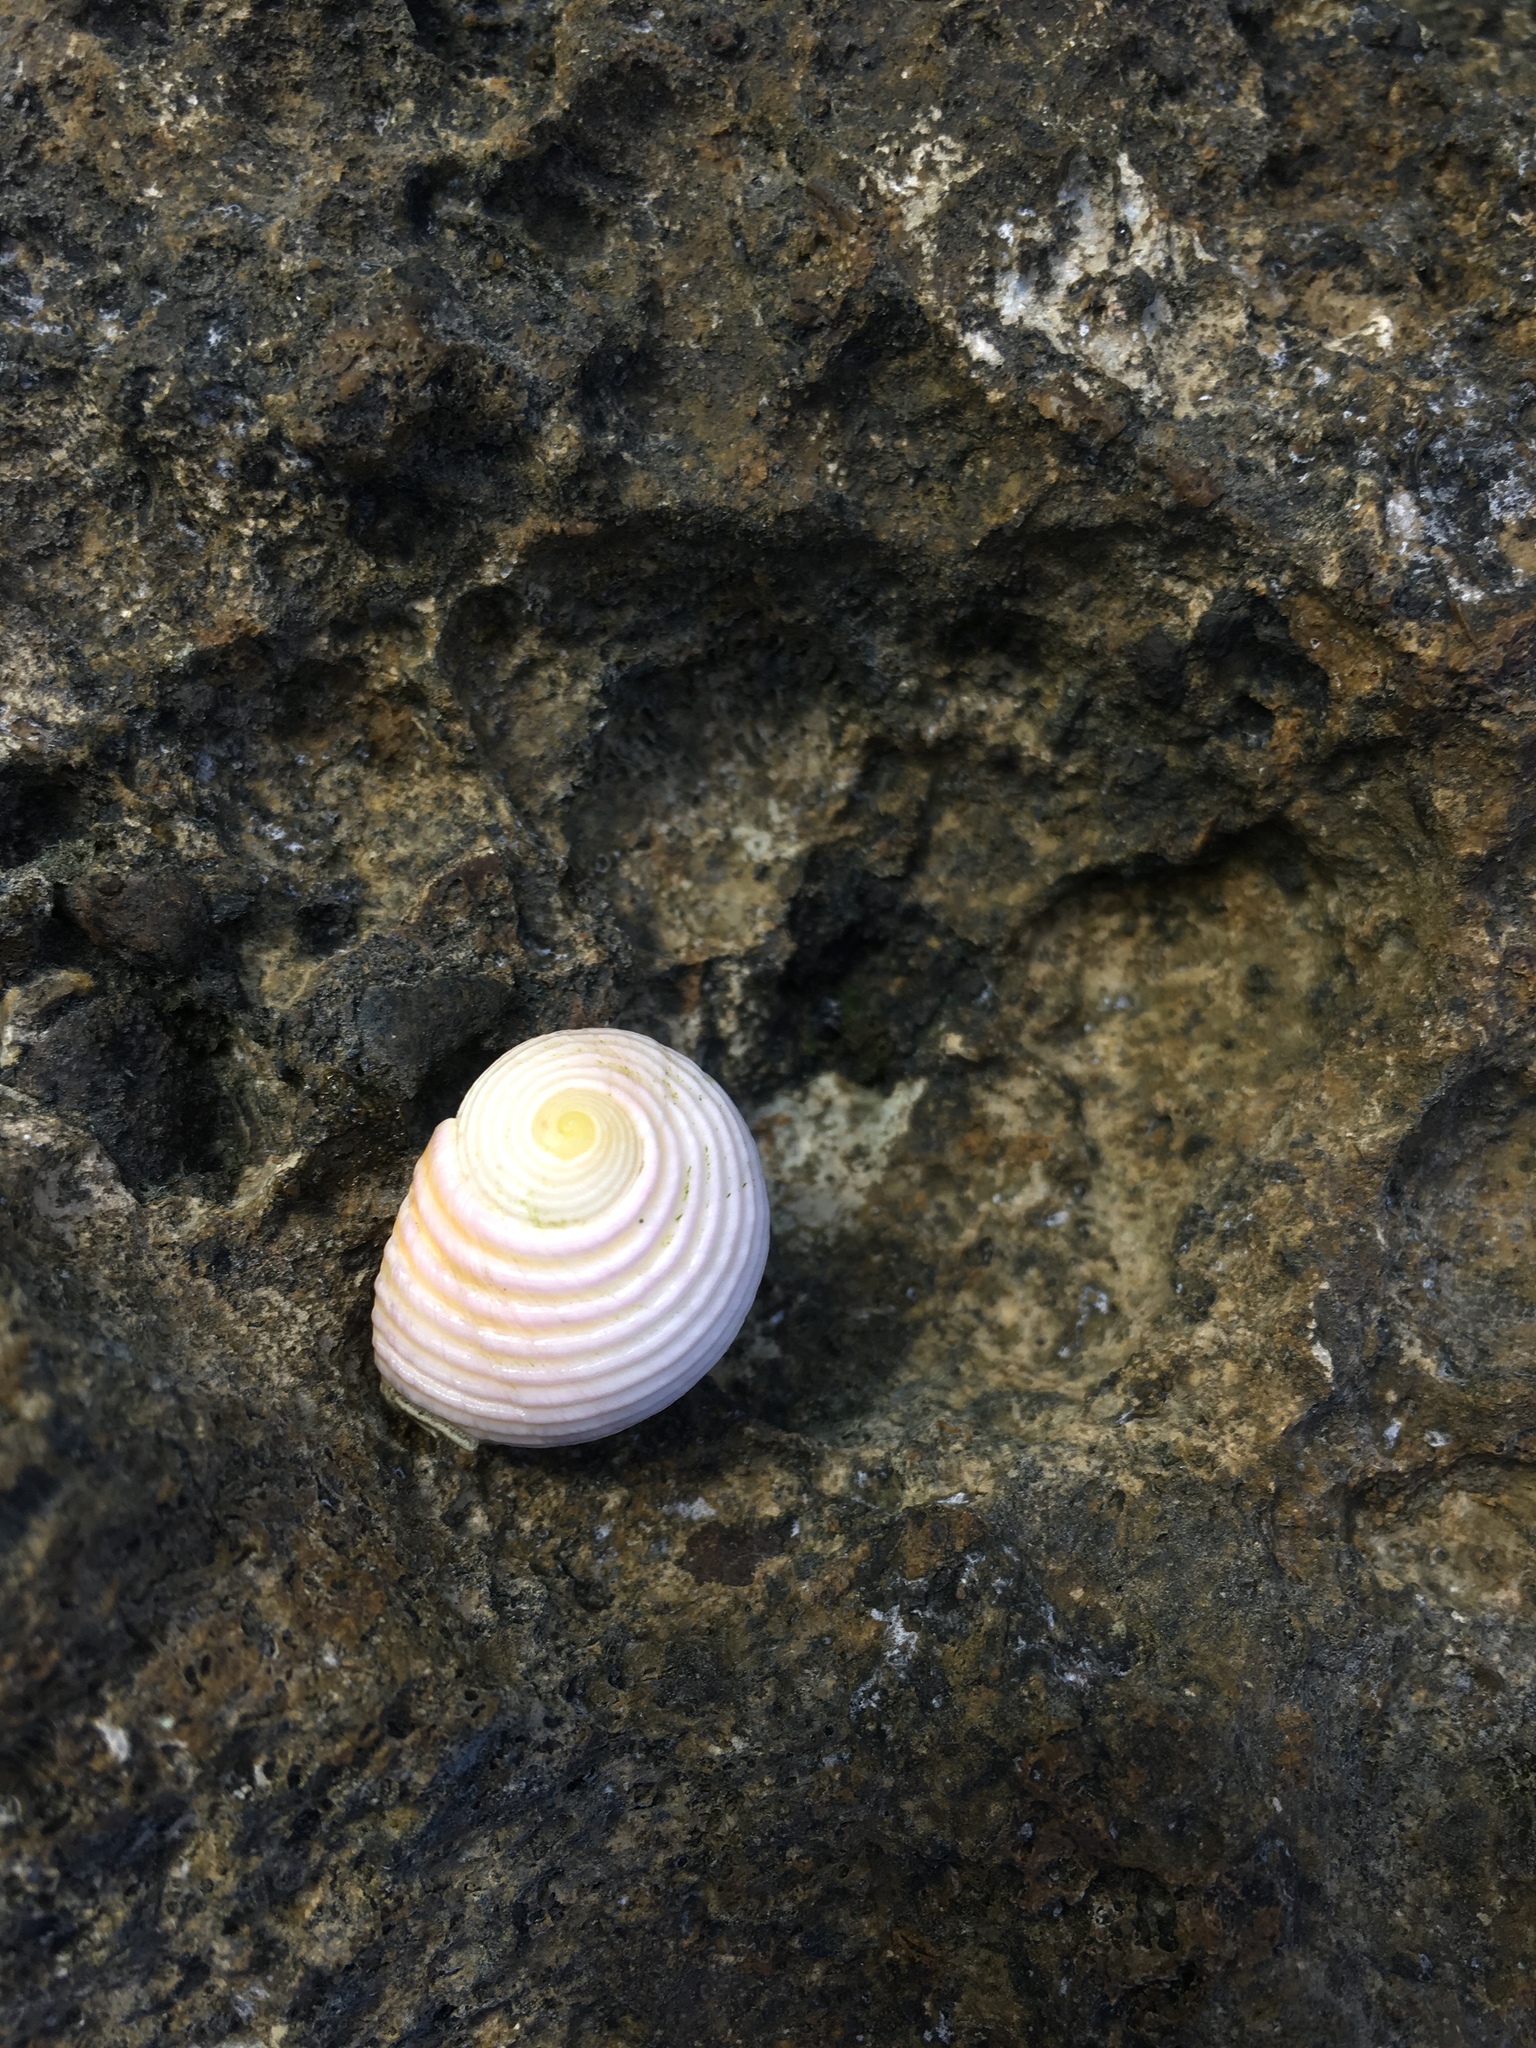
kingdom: Animalia
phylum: Mollusca
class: Gastropoda
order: Cycloneritida
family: Neritidae
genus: Nerita
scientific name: Nerita plicata
